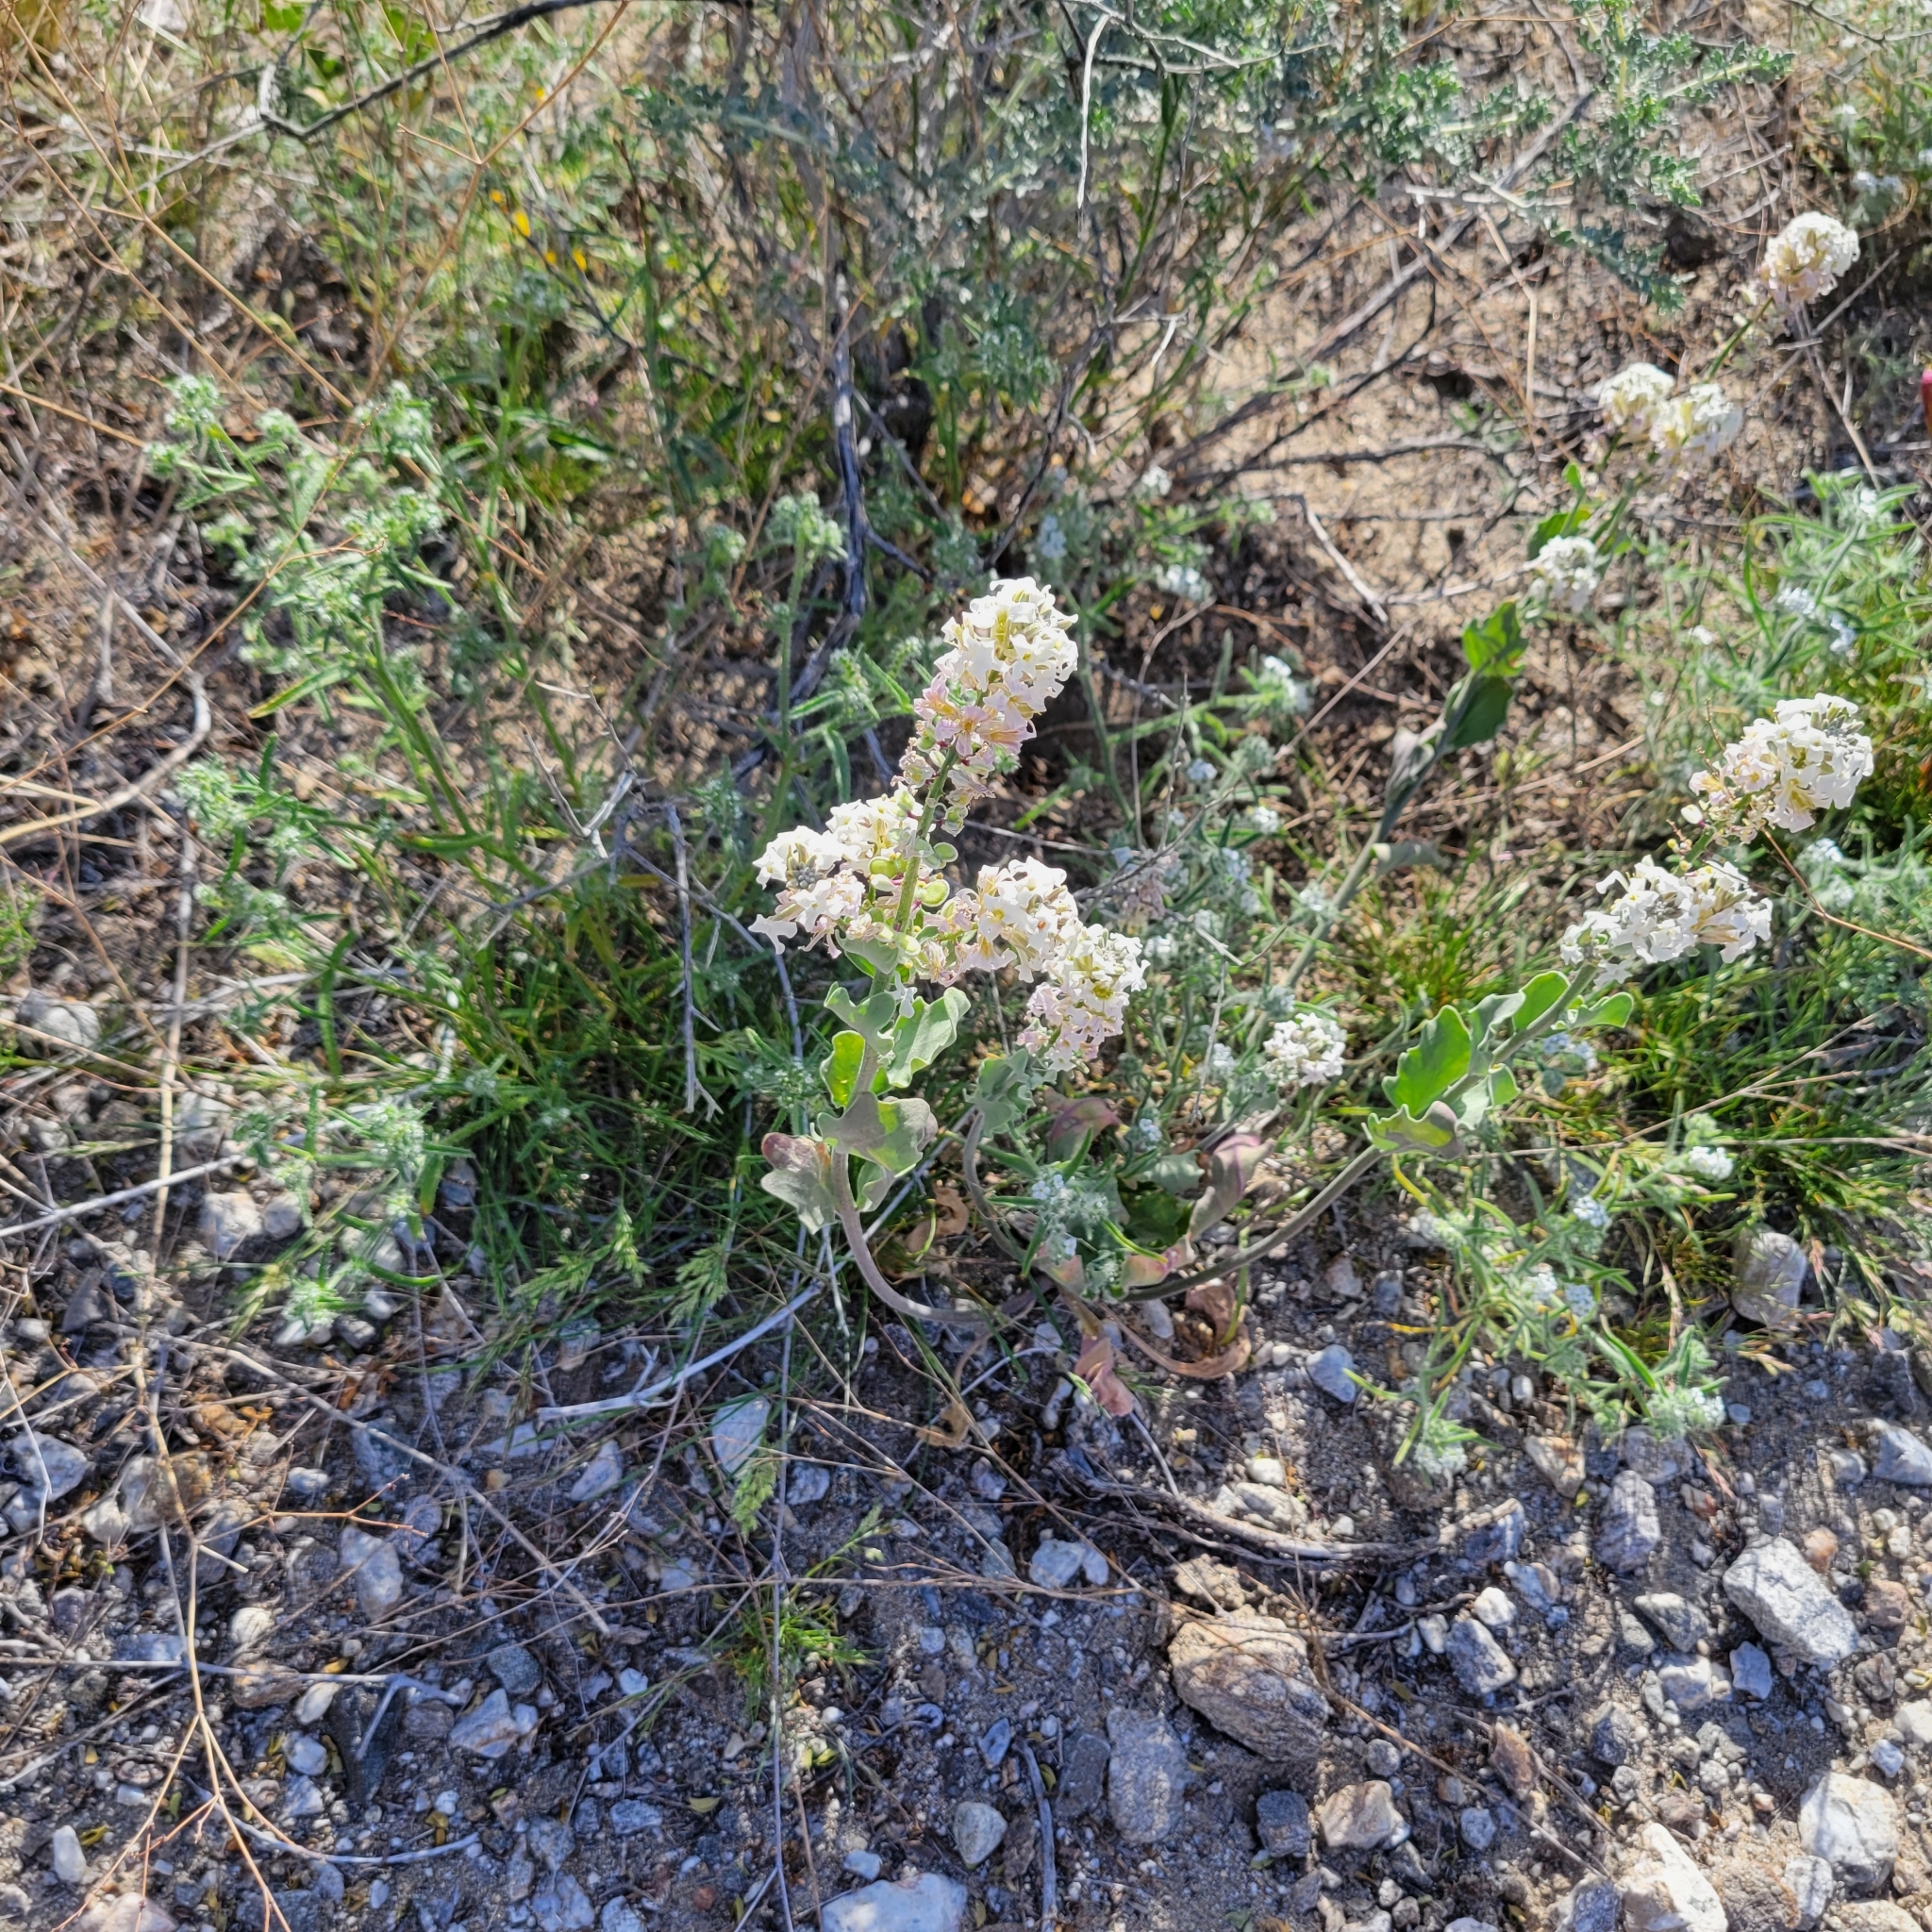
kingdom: Plantae
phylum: Tracheophyta
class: Magnoliopsida
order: Brassicales
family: Brassicaceae
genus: Dithyrea
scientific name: Dithyrea californica
